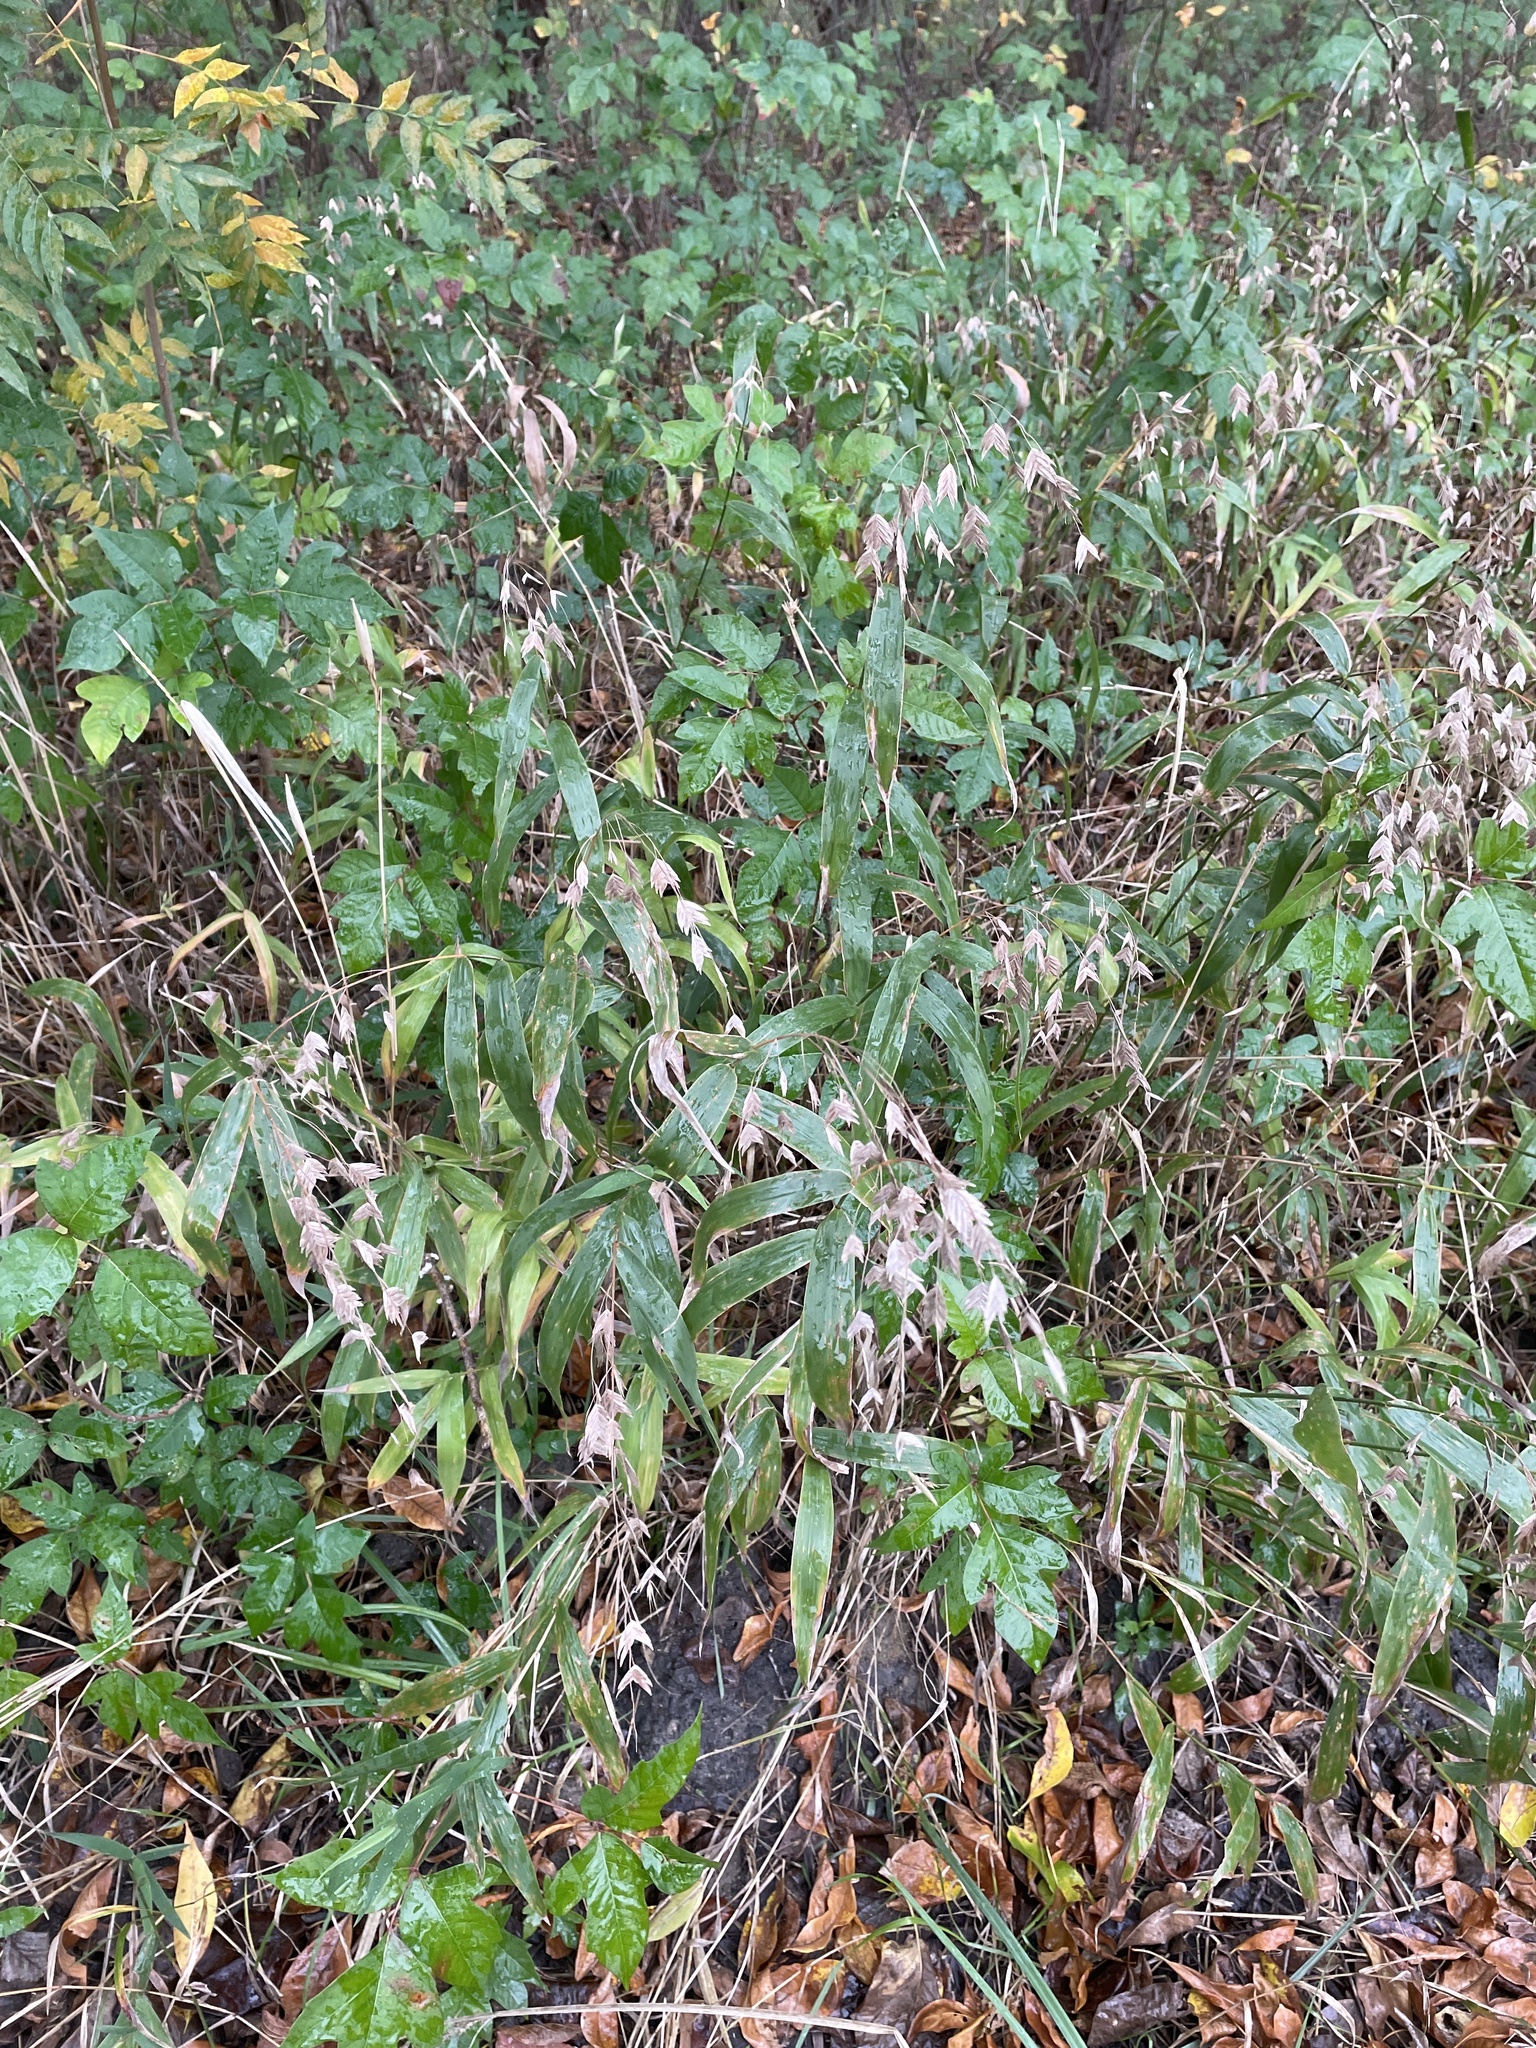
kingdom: Plantae
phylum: Tracheophyta
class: Liliopsida
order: Poales
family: Poaceae
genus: Chasmanthium
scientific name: Chasmanthium latifolium
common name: Broad-leaved chasmanthium
